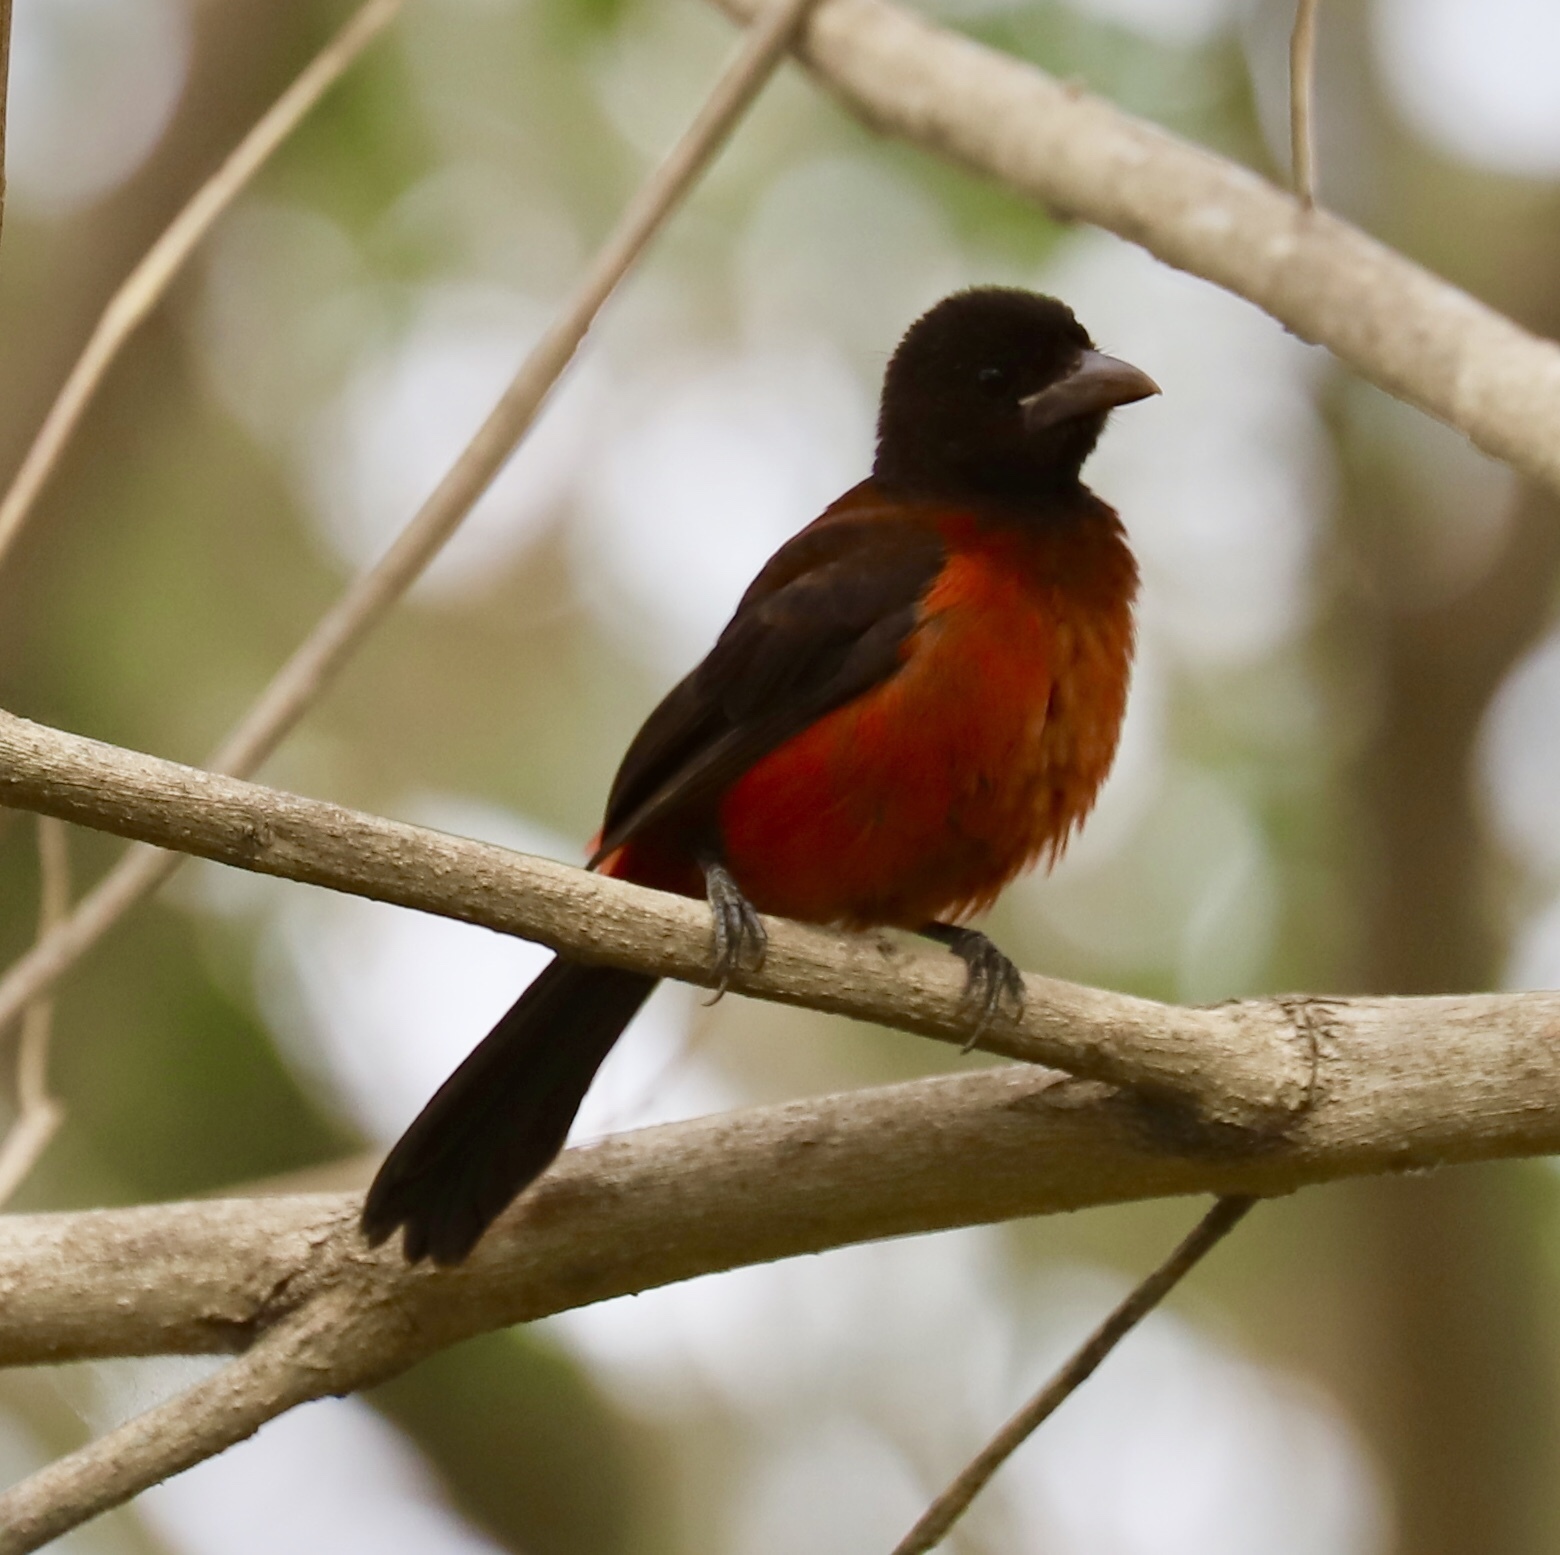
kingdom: Animalia
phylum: Chordata
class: Aves
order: Passeriformes
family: Thraupidae
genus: Ramphocelus
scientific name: Ramphocelus dimidiatus
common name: Crimson-backed tanager
